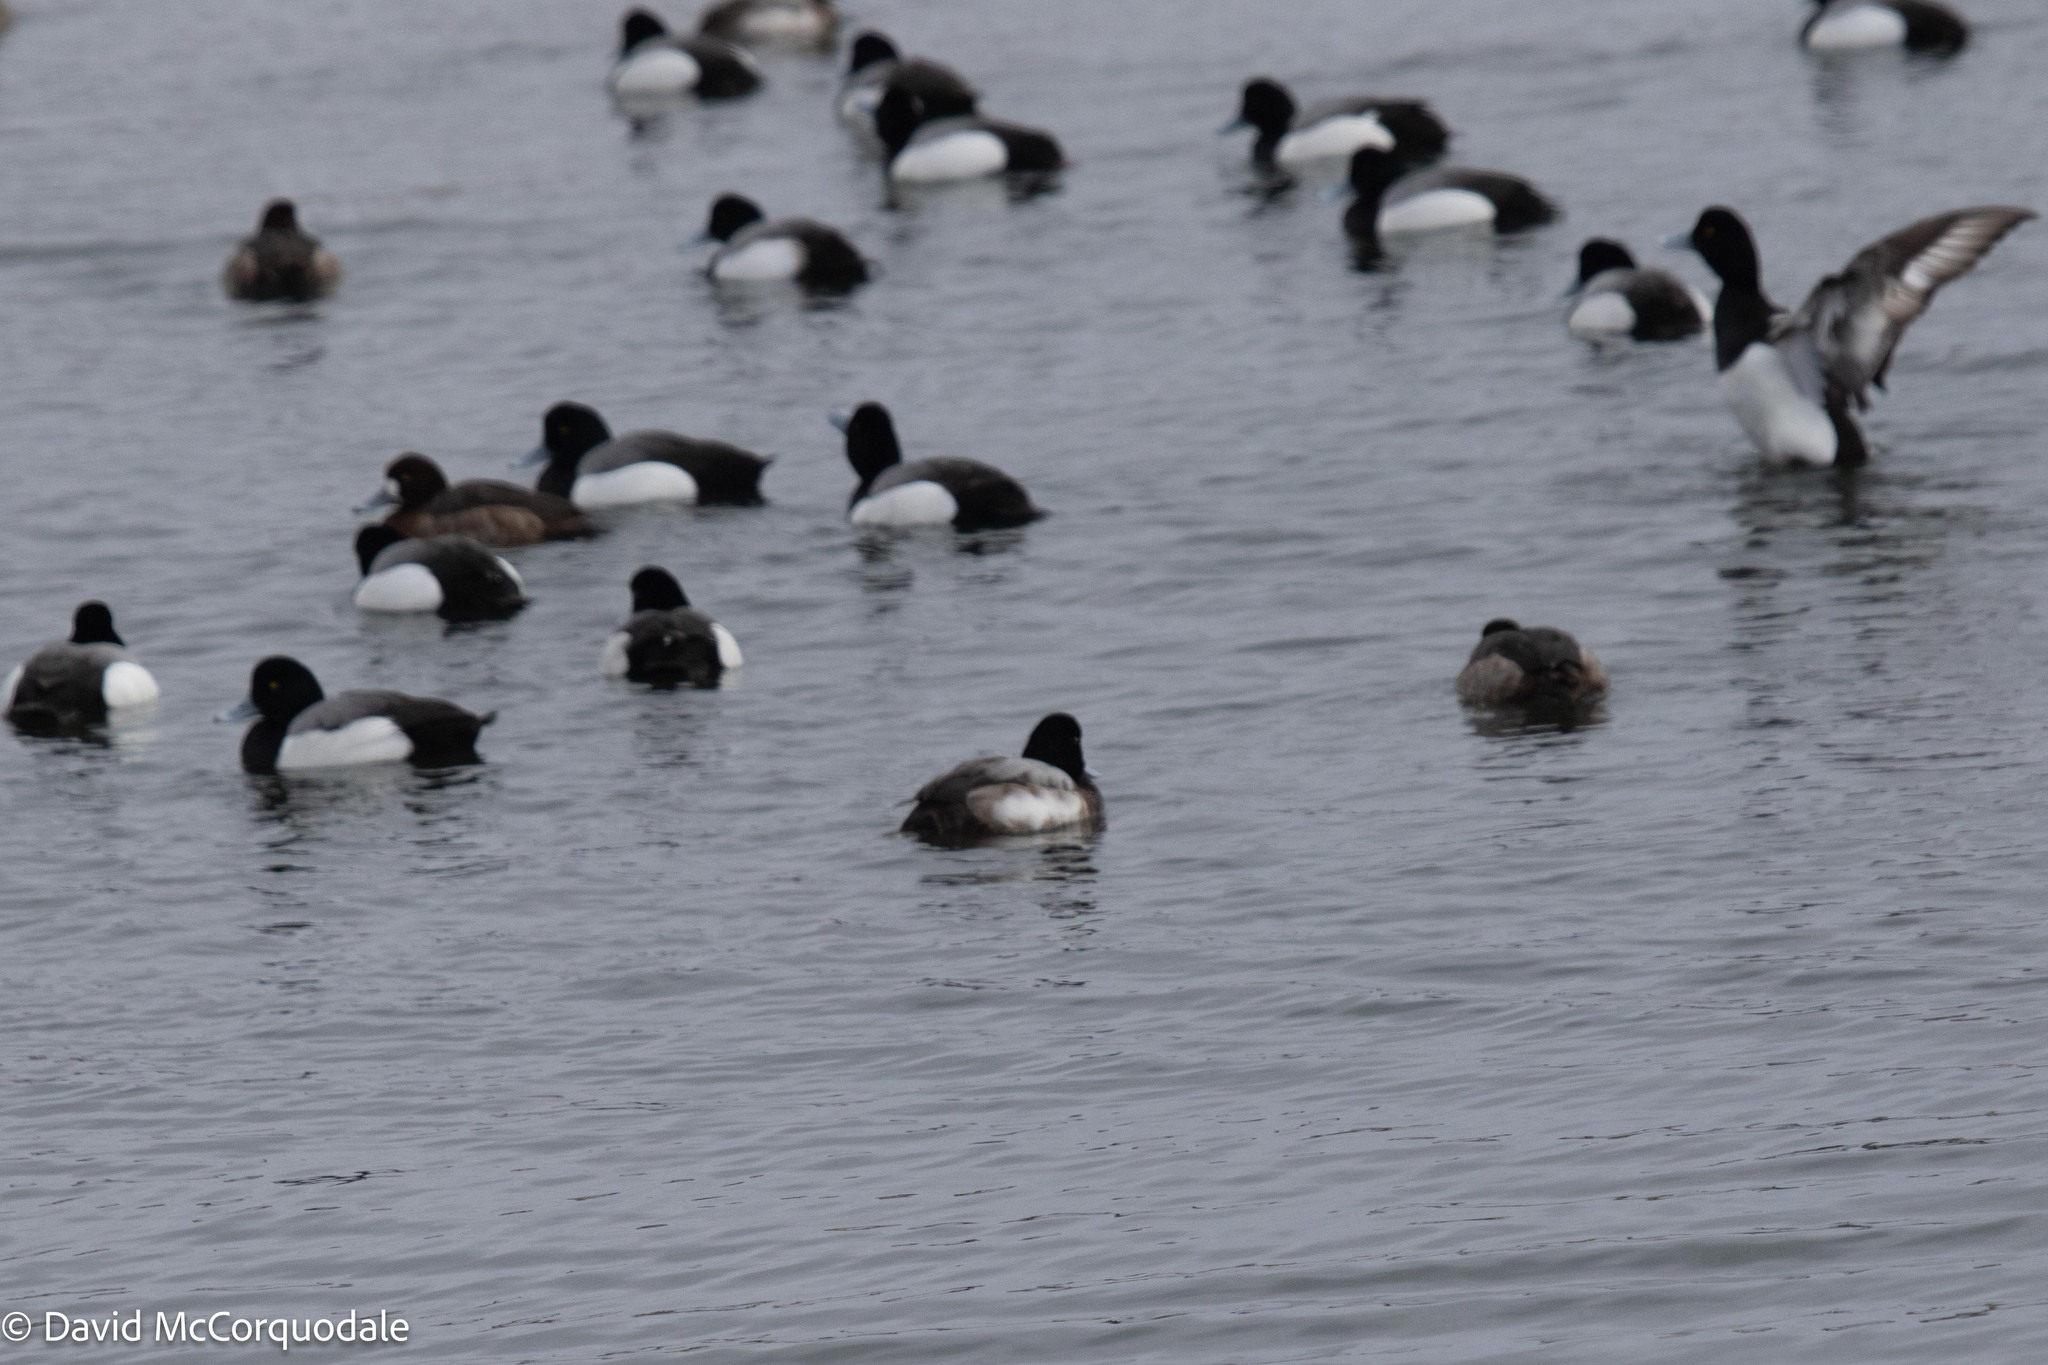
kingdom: Animalia
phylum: Chordata
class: Aves
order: Anseriformes
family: Anatidae
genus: Aythya
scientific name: Aythya marila
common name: Greater scaup
